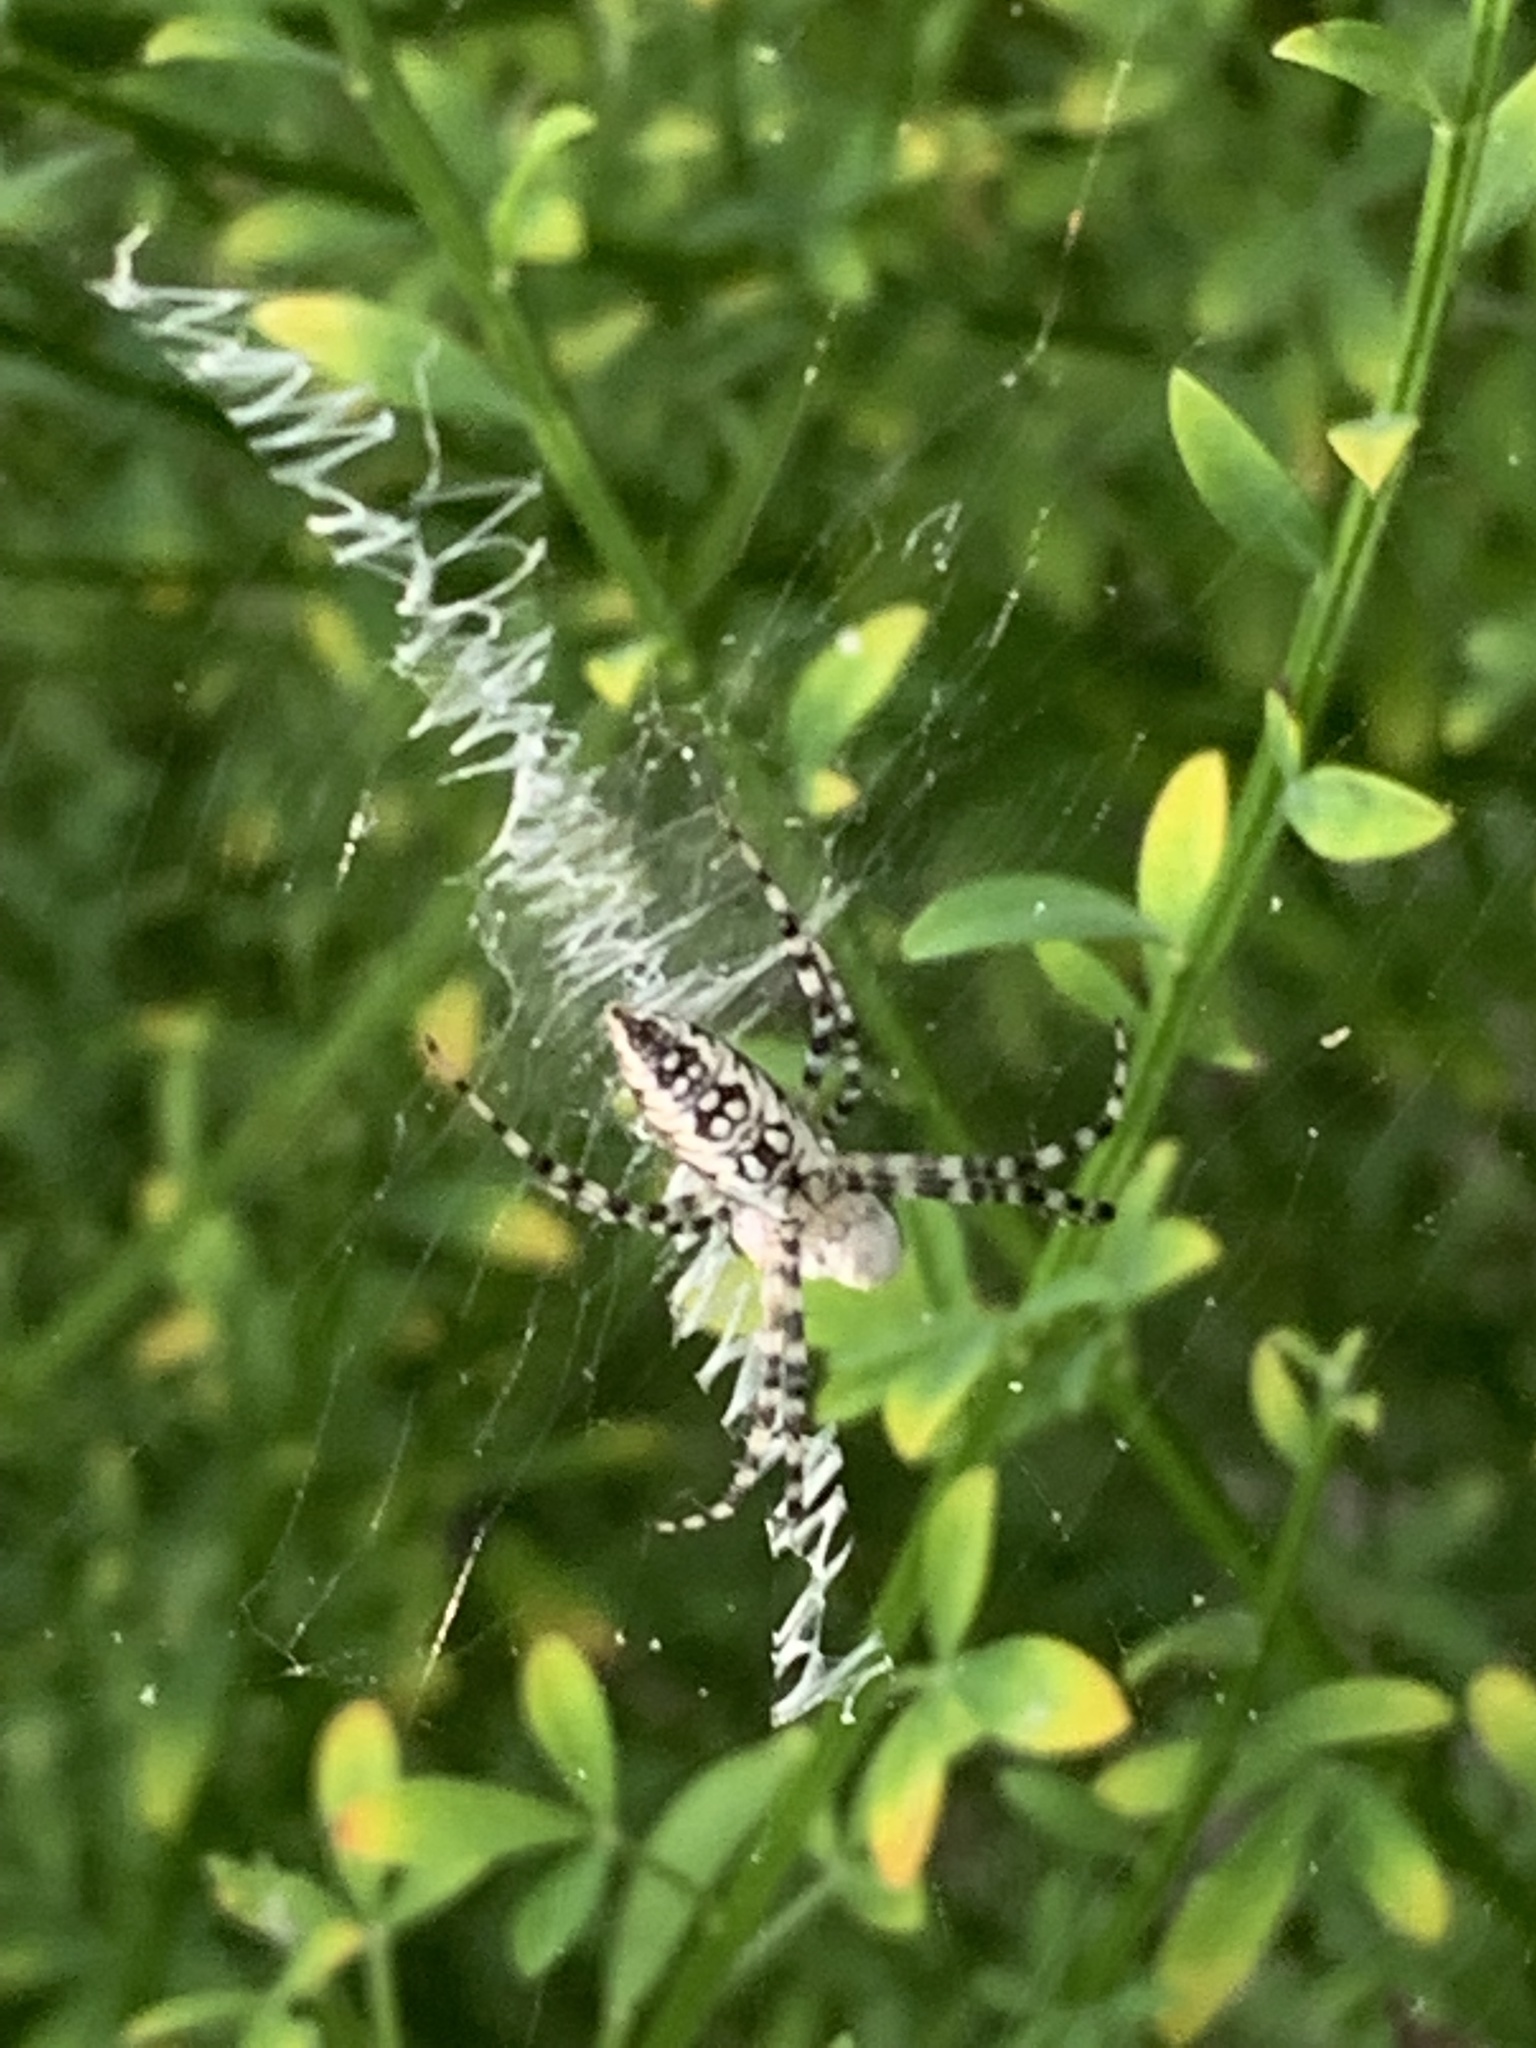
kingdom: Animalia
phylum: Arthropoda
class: Arachnida
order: Araneae
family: Araneidae
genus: Argiope
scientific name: Argiope aurantia
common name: Orb weavers
